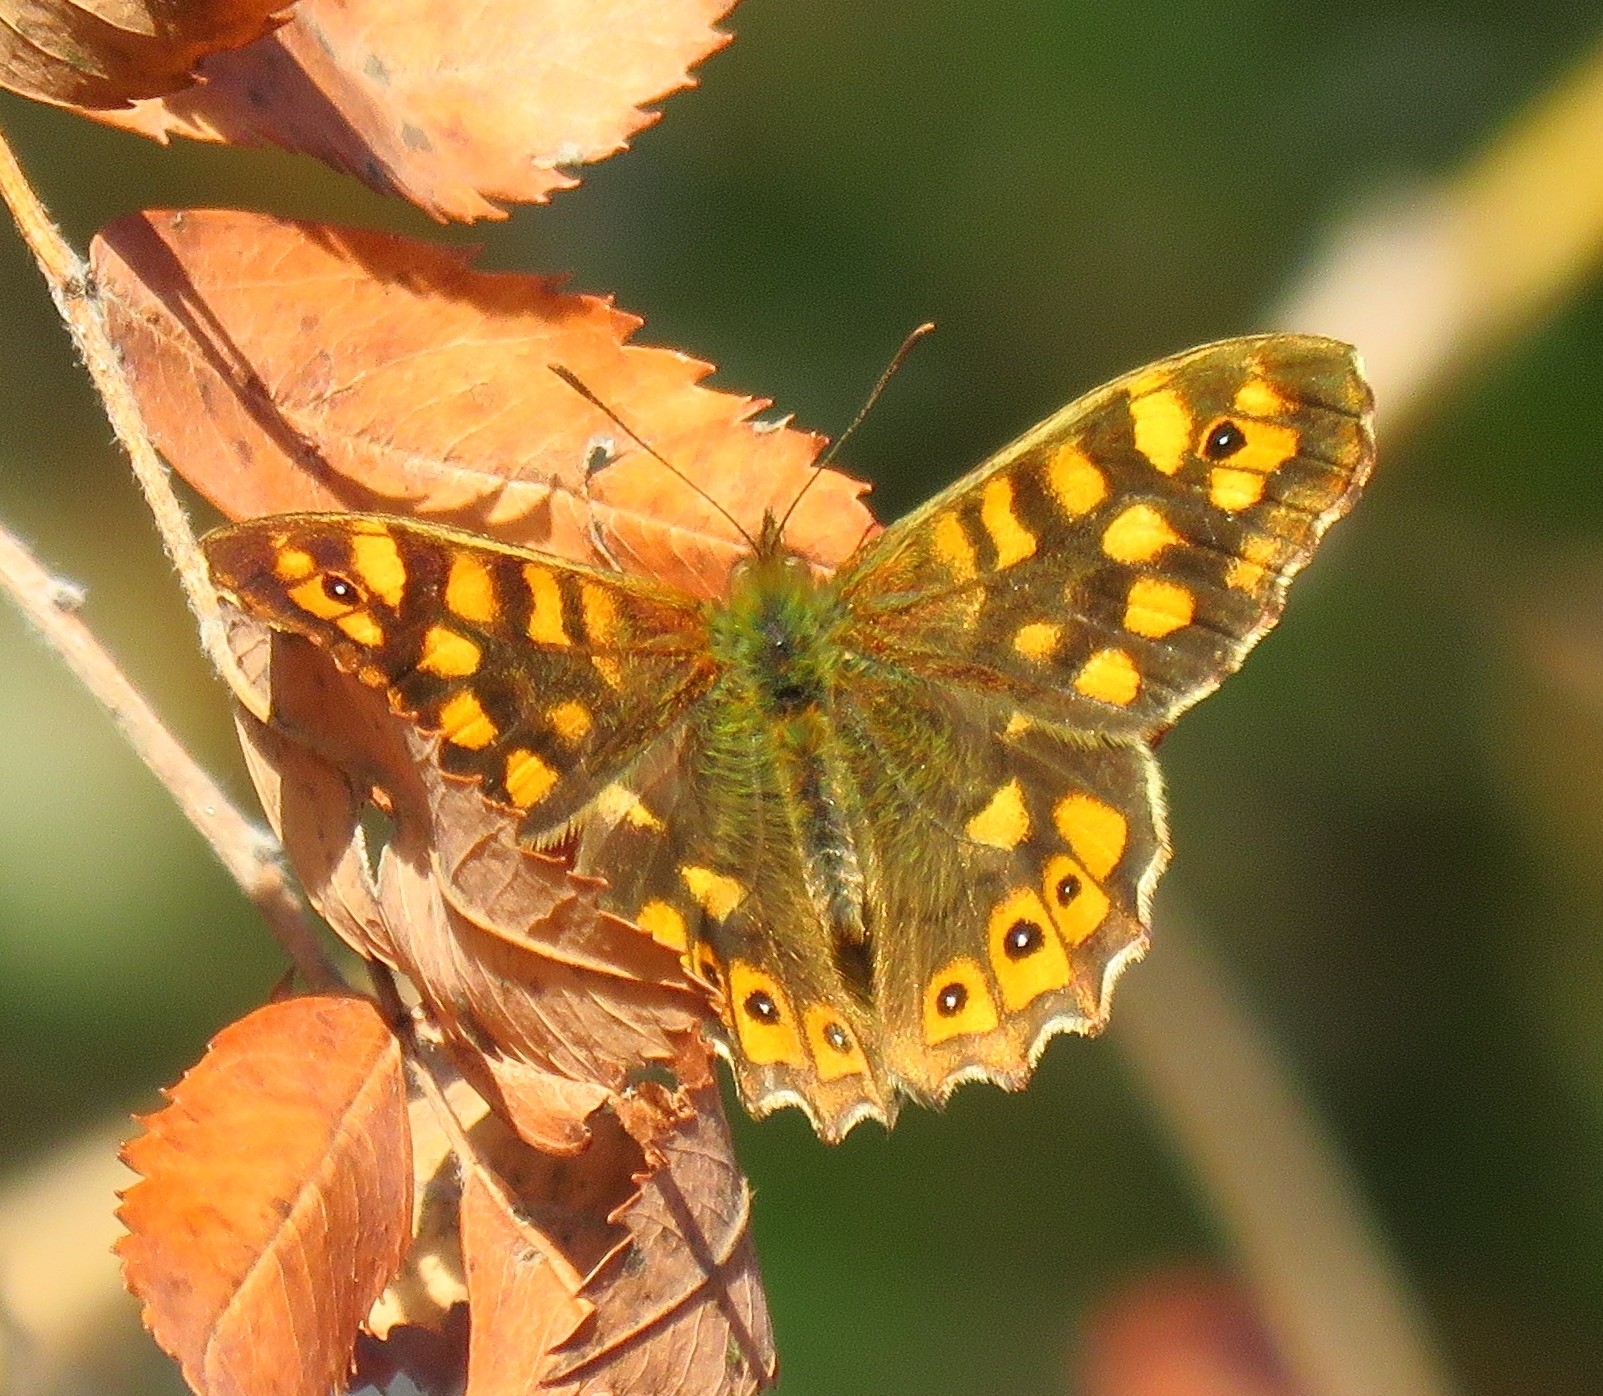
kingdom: Animalia
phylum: Arthropoda
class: Insecta
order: Lepidoptera
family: Nymphalidae
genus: Pararge
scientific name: Pararge aegeria
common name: Speckled wood
